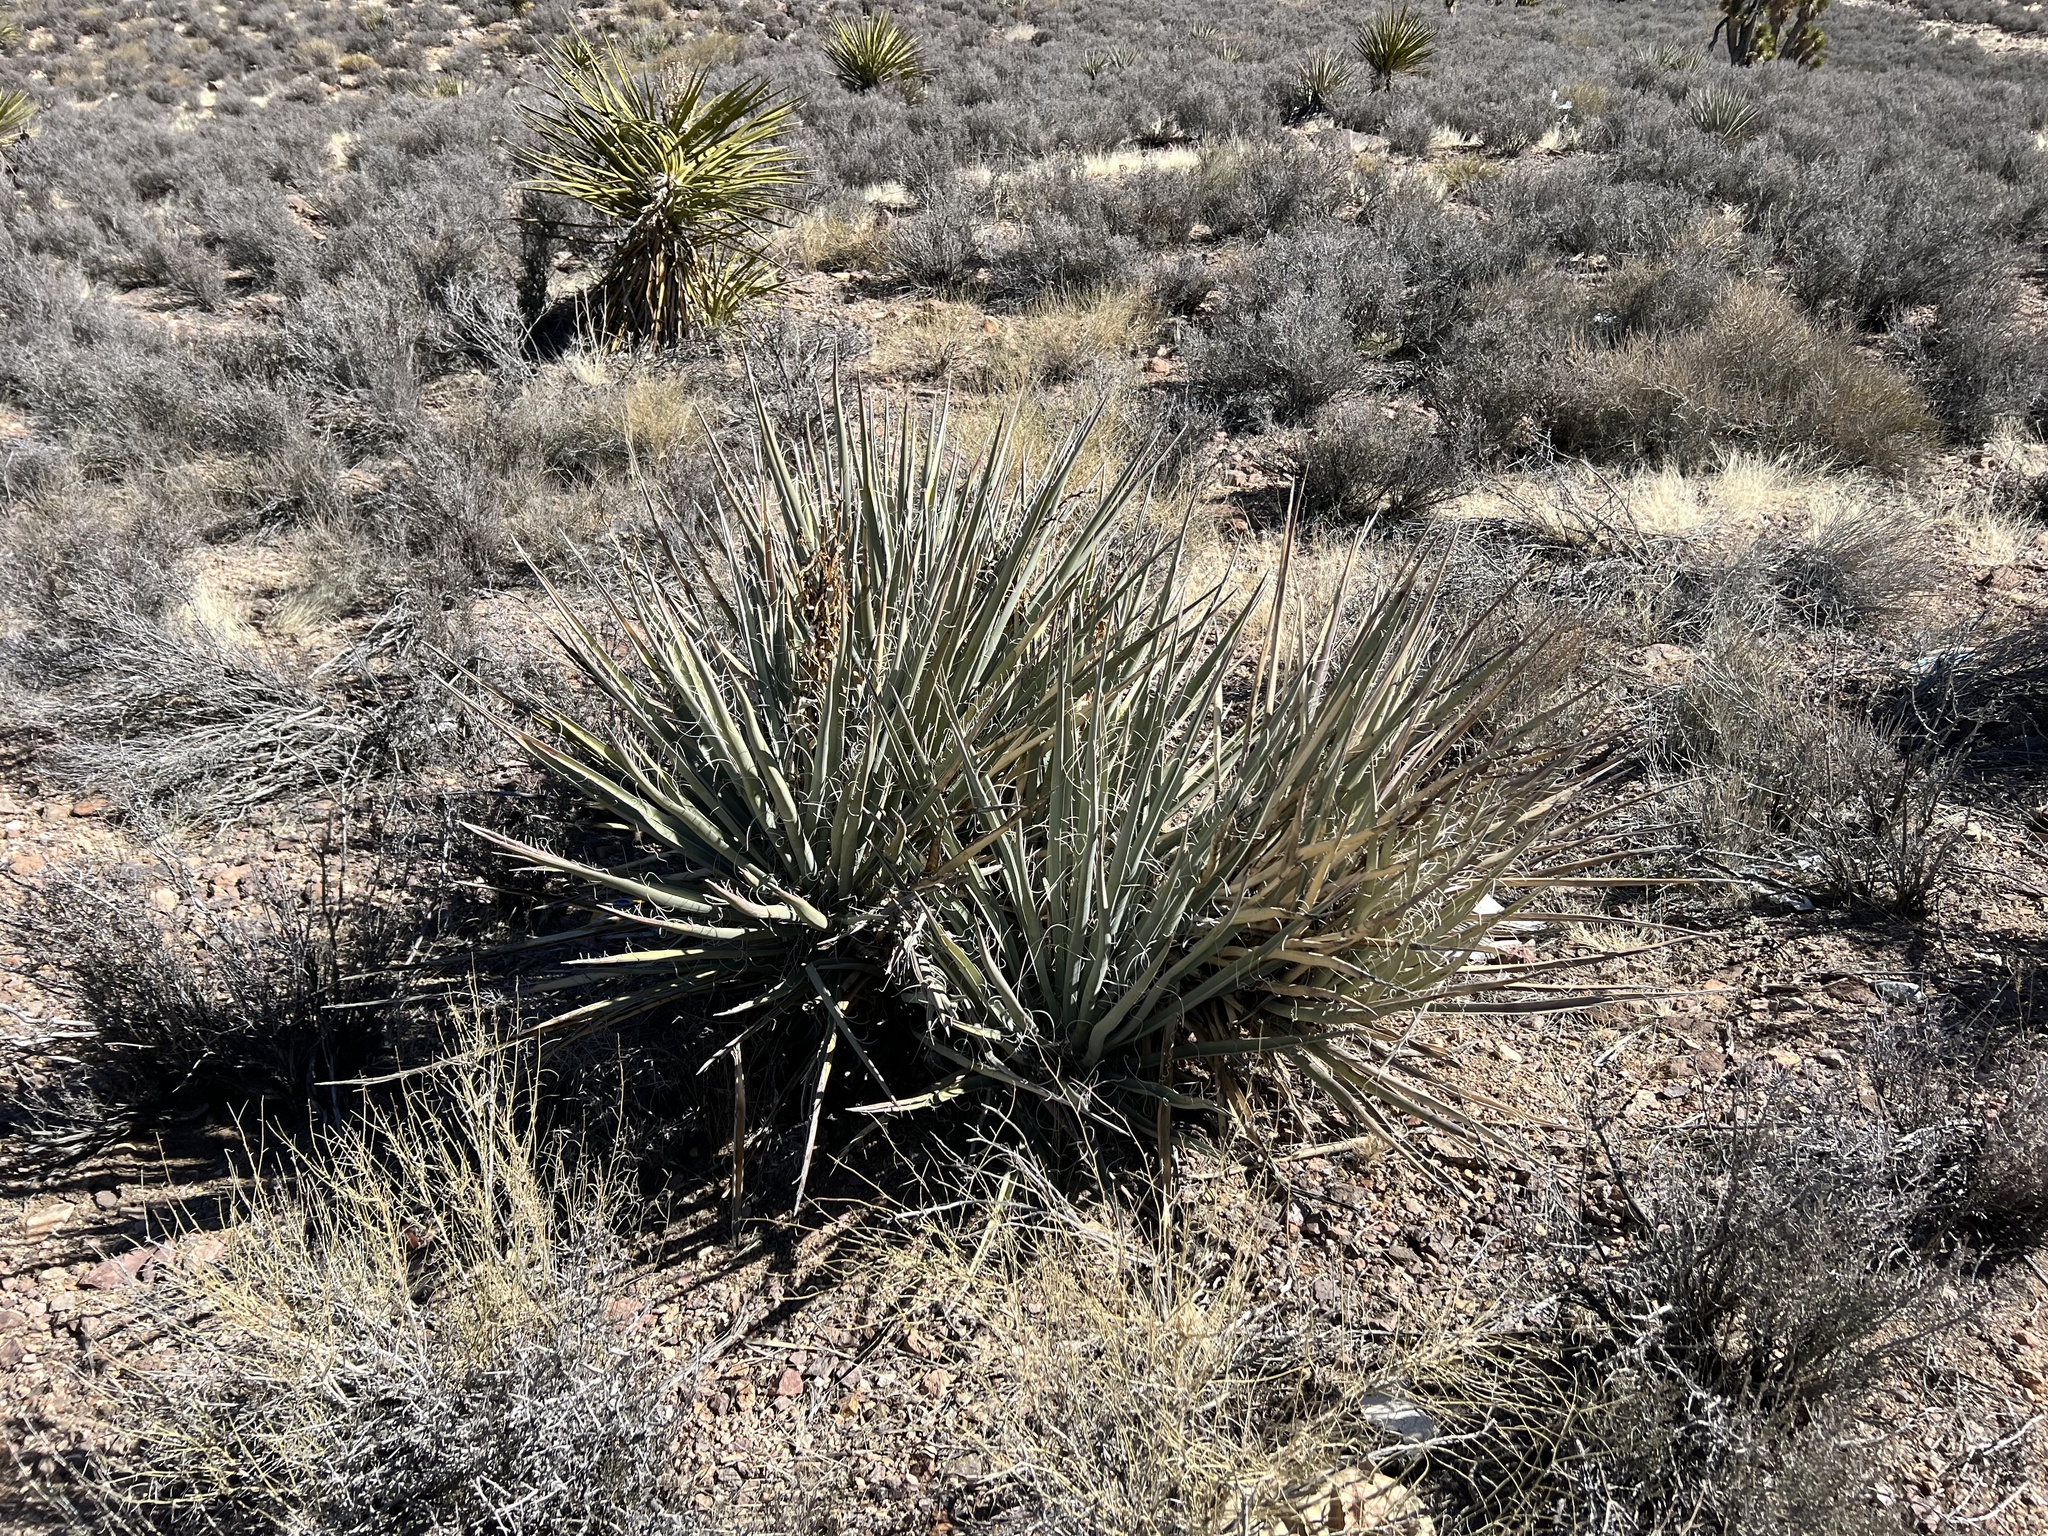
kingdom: Plantae
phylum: Tracheophyta
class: Liliopsida
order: Asparagales
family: Asparagaceae
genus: Yucca
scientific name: Yucca baccata
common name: Banana yucca
